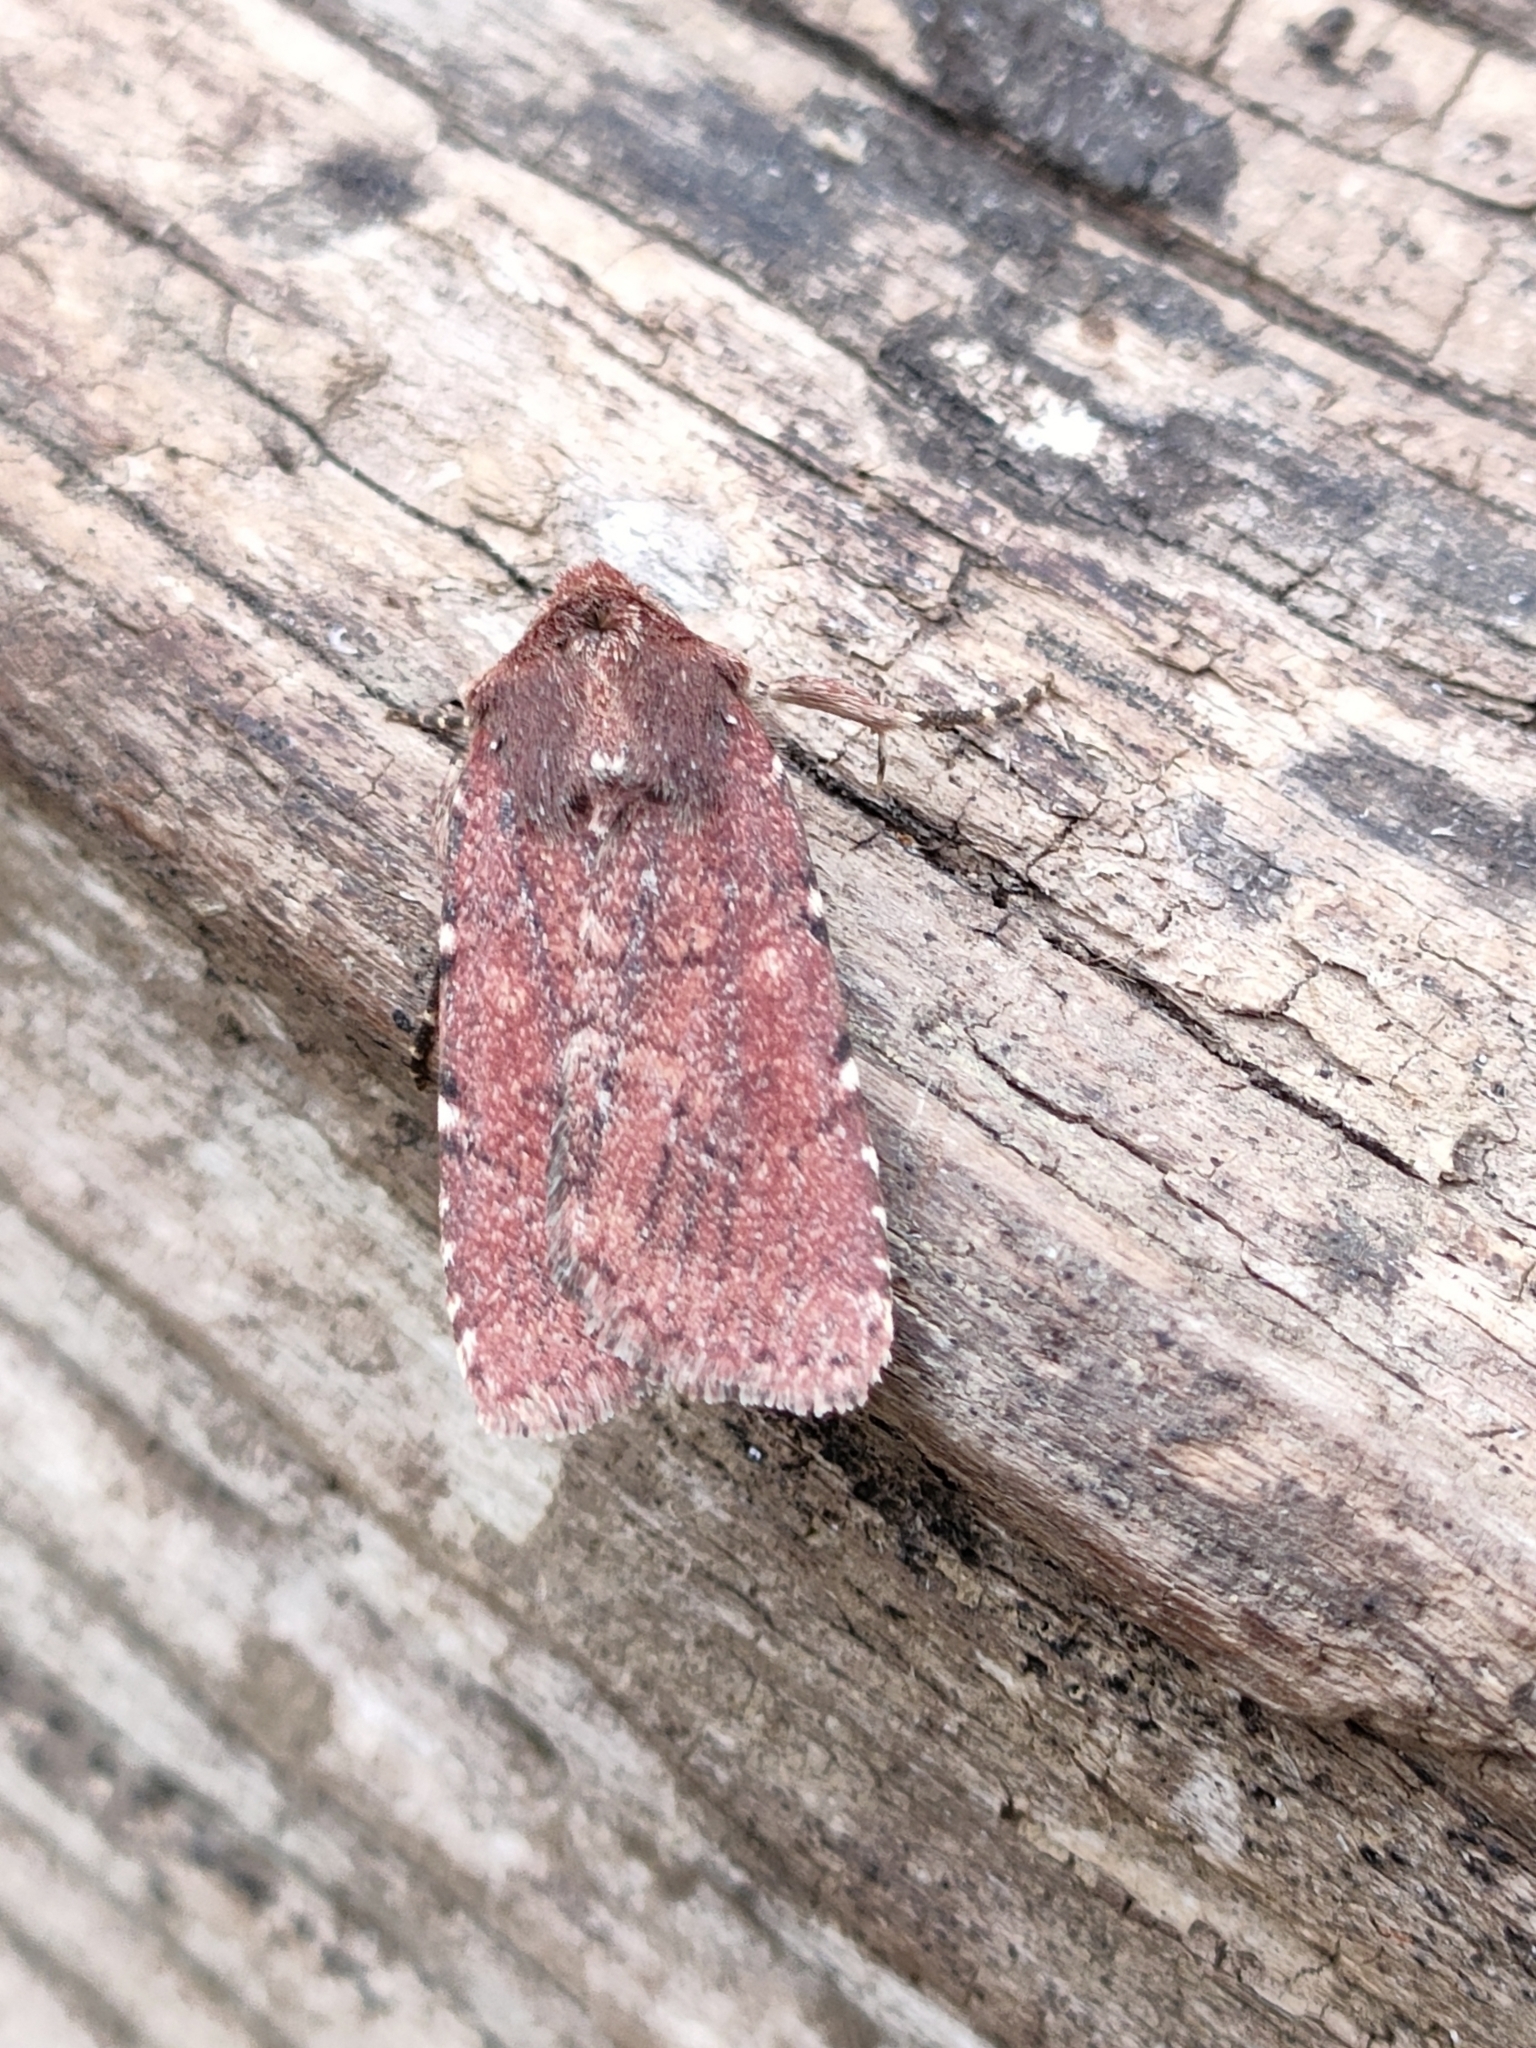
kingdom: Animalia
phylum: Arthropoda
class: Insecta
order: Lepidoptera
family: Noctuidae
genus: Lycophotia
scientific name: Lycophotia erythrina
